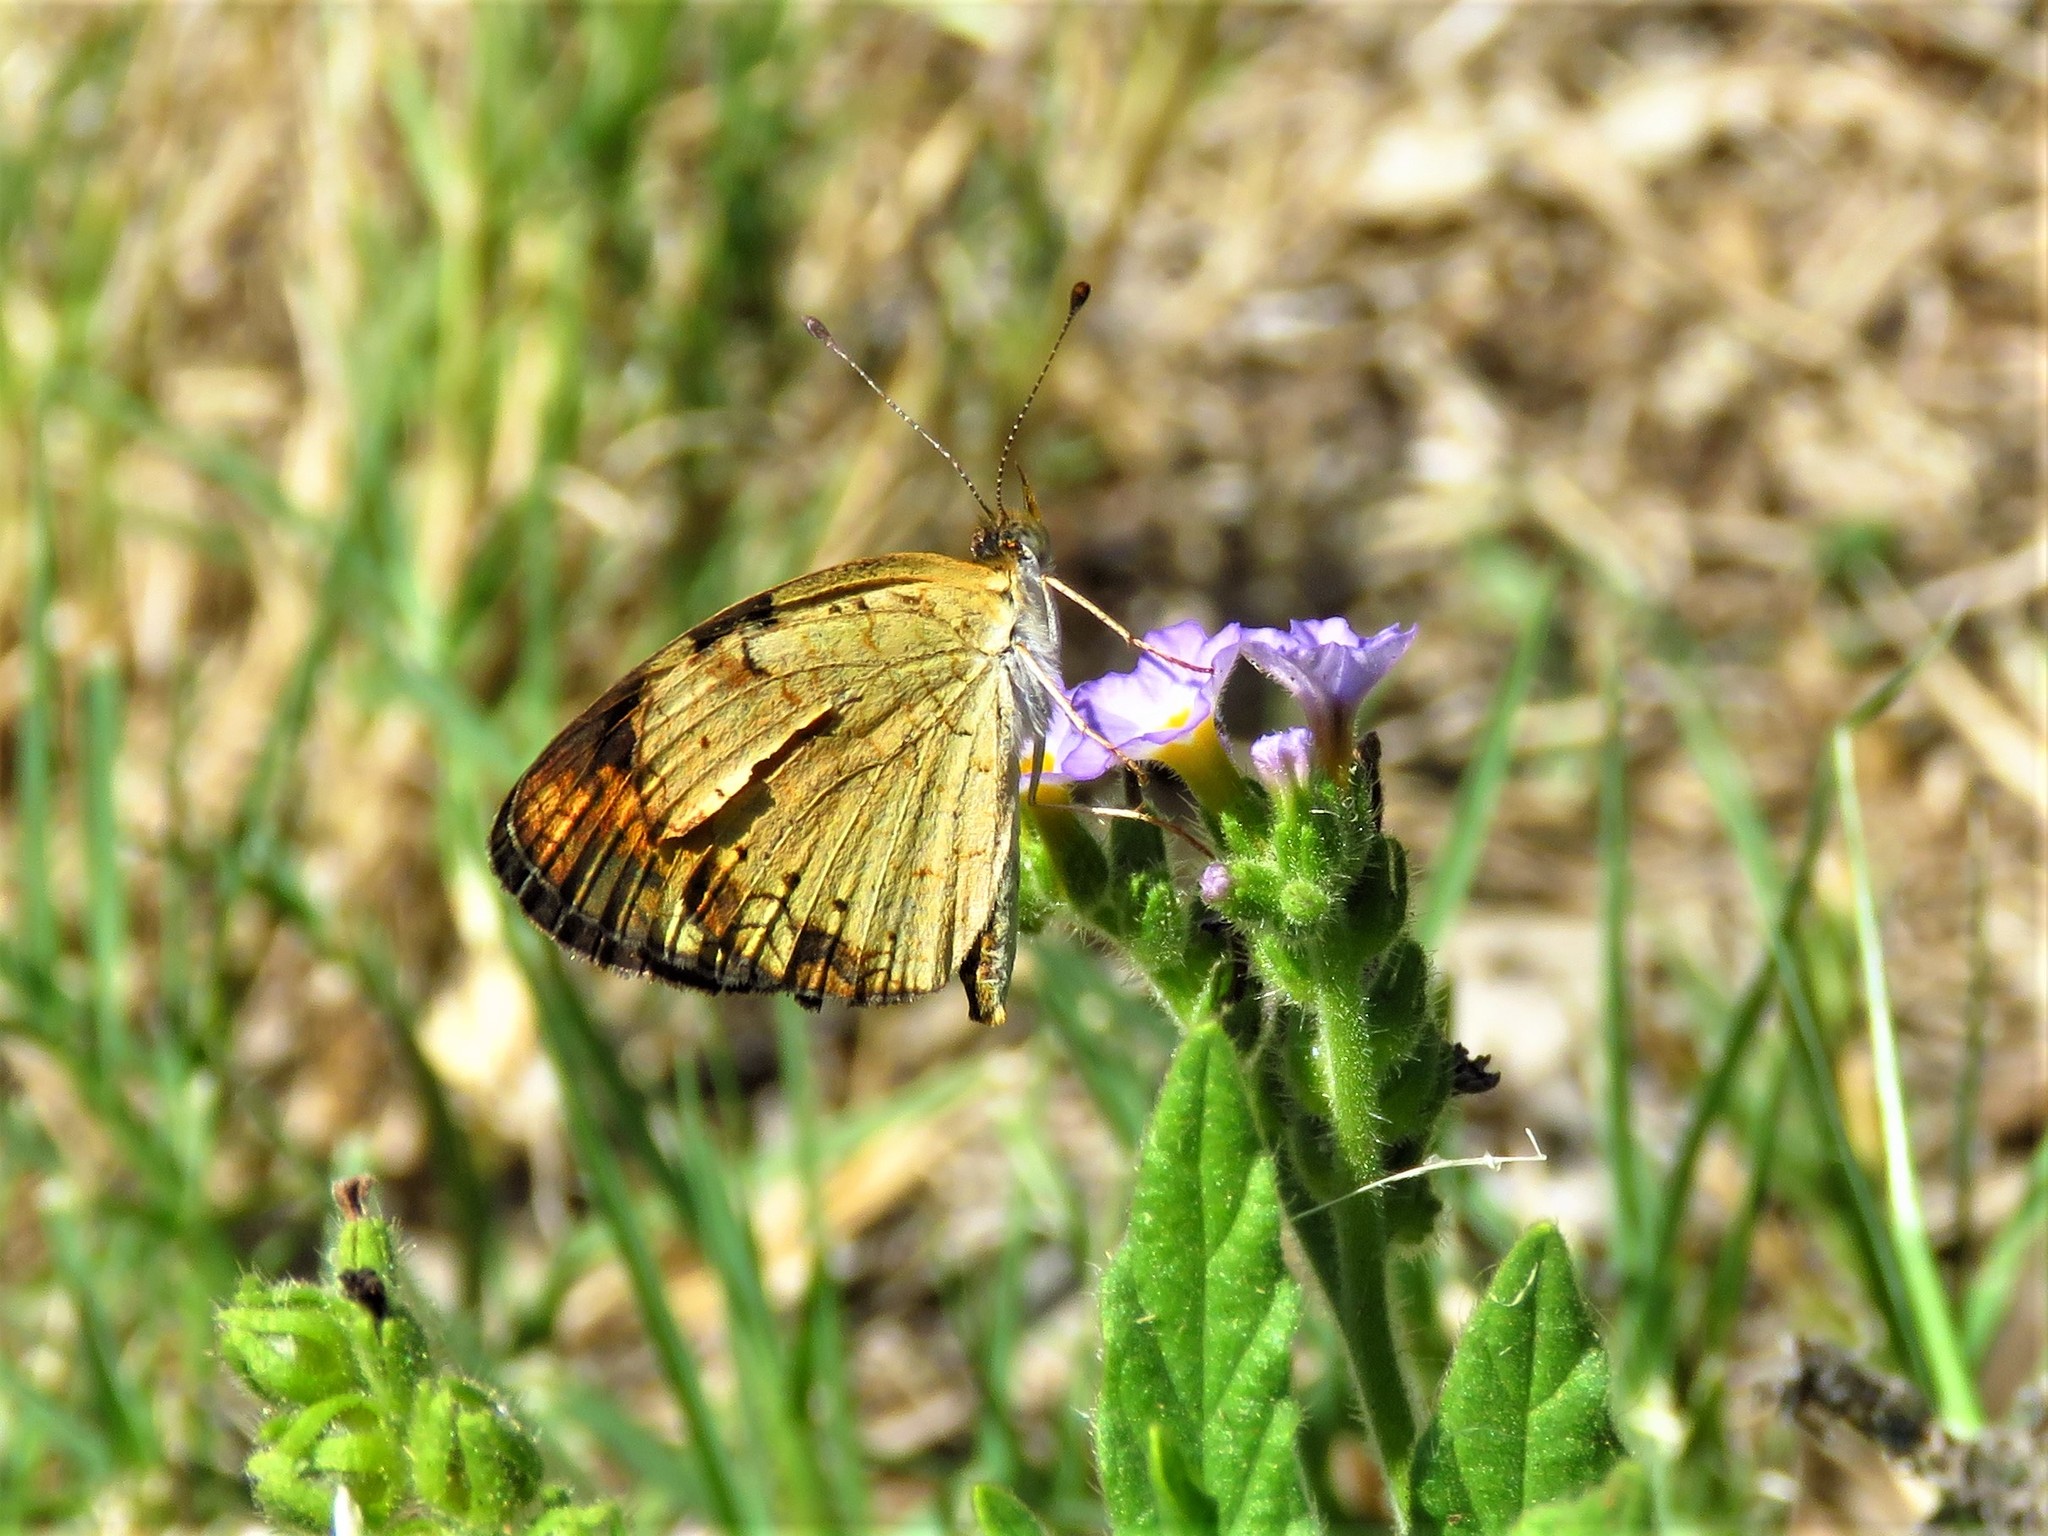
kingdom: Animalia
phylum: Arthropoda
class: Insecta
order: Lepidoptera
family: Nymphalidae
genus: Phyciodes
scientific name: Phyciodes tharos
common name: Pearl crescent
